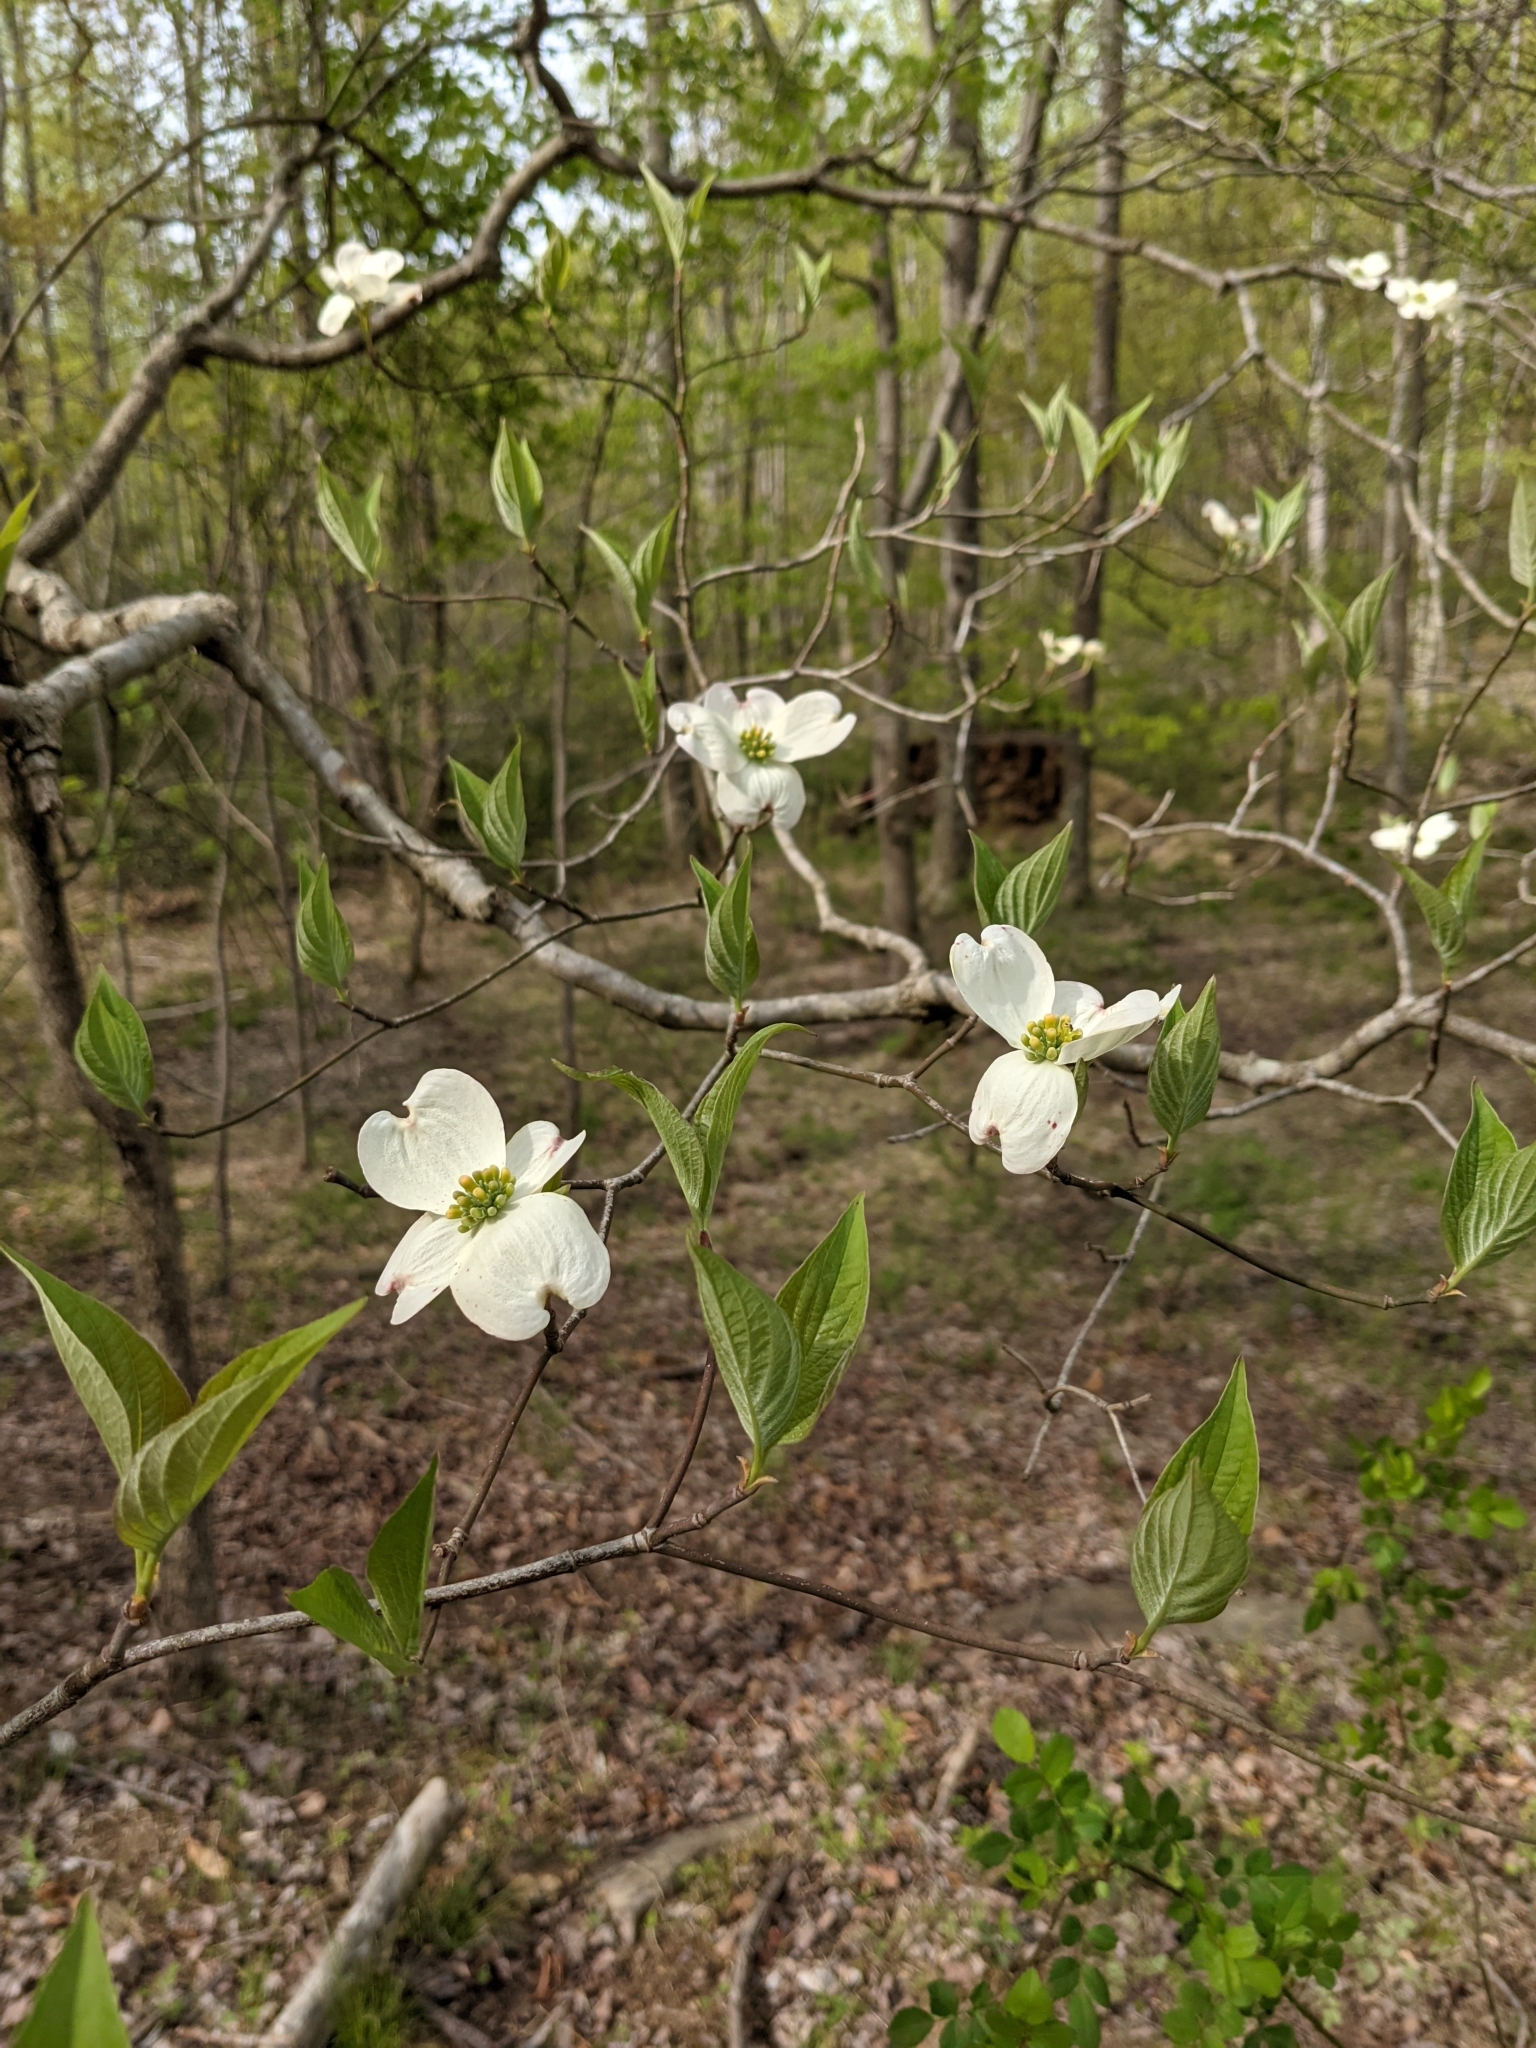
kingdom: Plantae
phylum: Tracheophyta
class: Magnoliopsida
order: Cornales
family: Cornaceae
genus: Cornus
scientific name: Cornus florida
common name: Flowering dogwood
